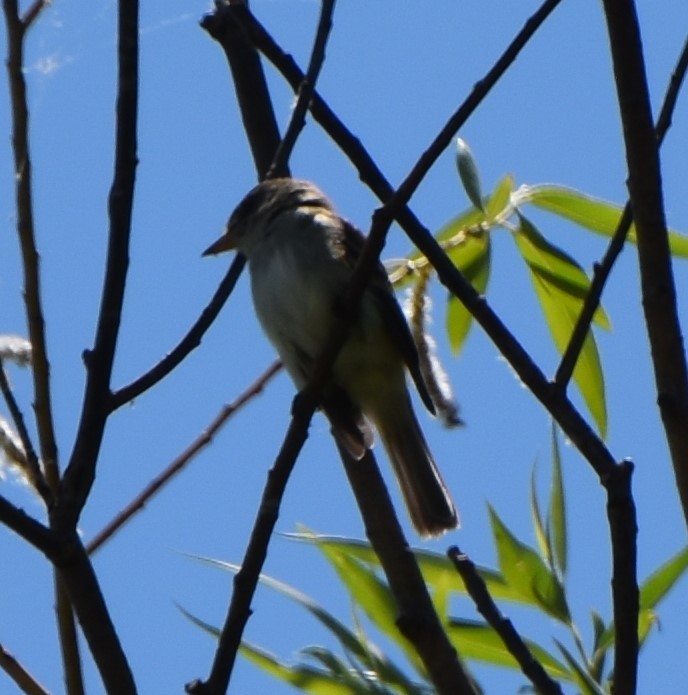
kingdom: Animalia
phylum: Chordata
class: Aves
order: Passeriformes
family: Tyrannidae
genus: Empidonax
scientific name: Empidonax traillii
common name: Willow flycatcher
